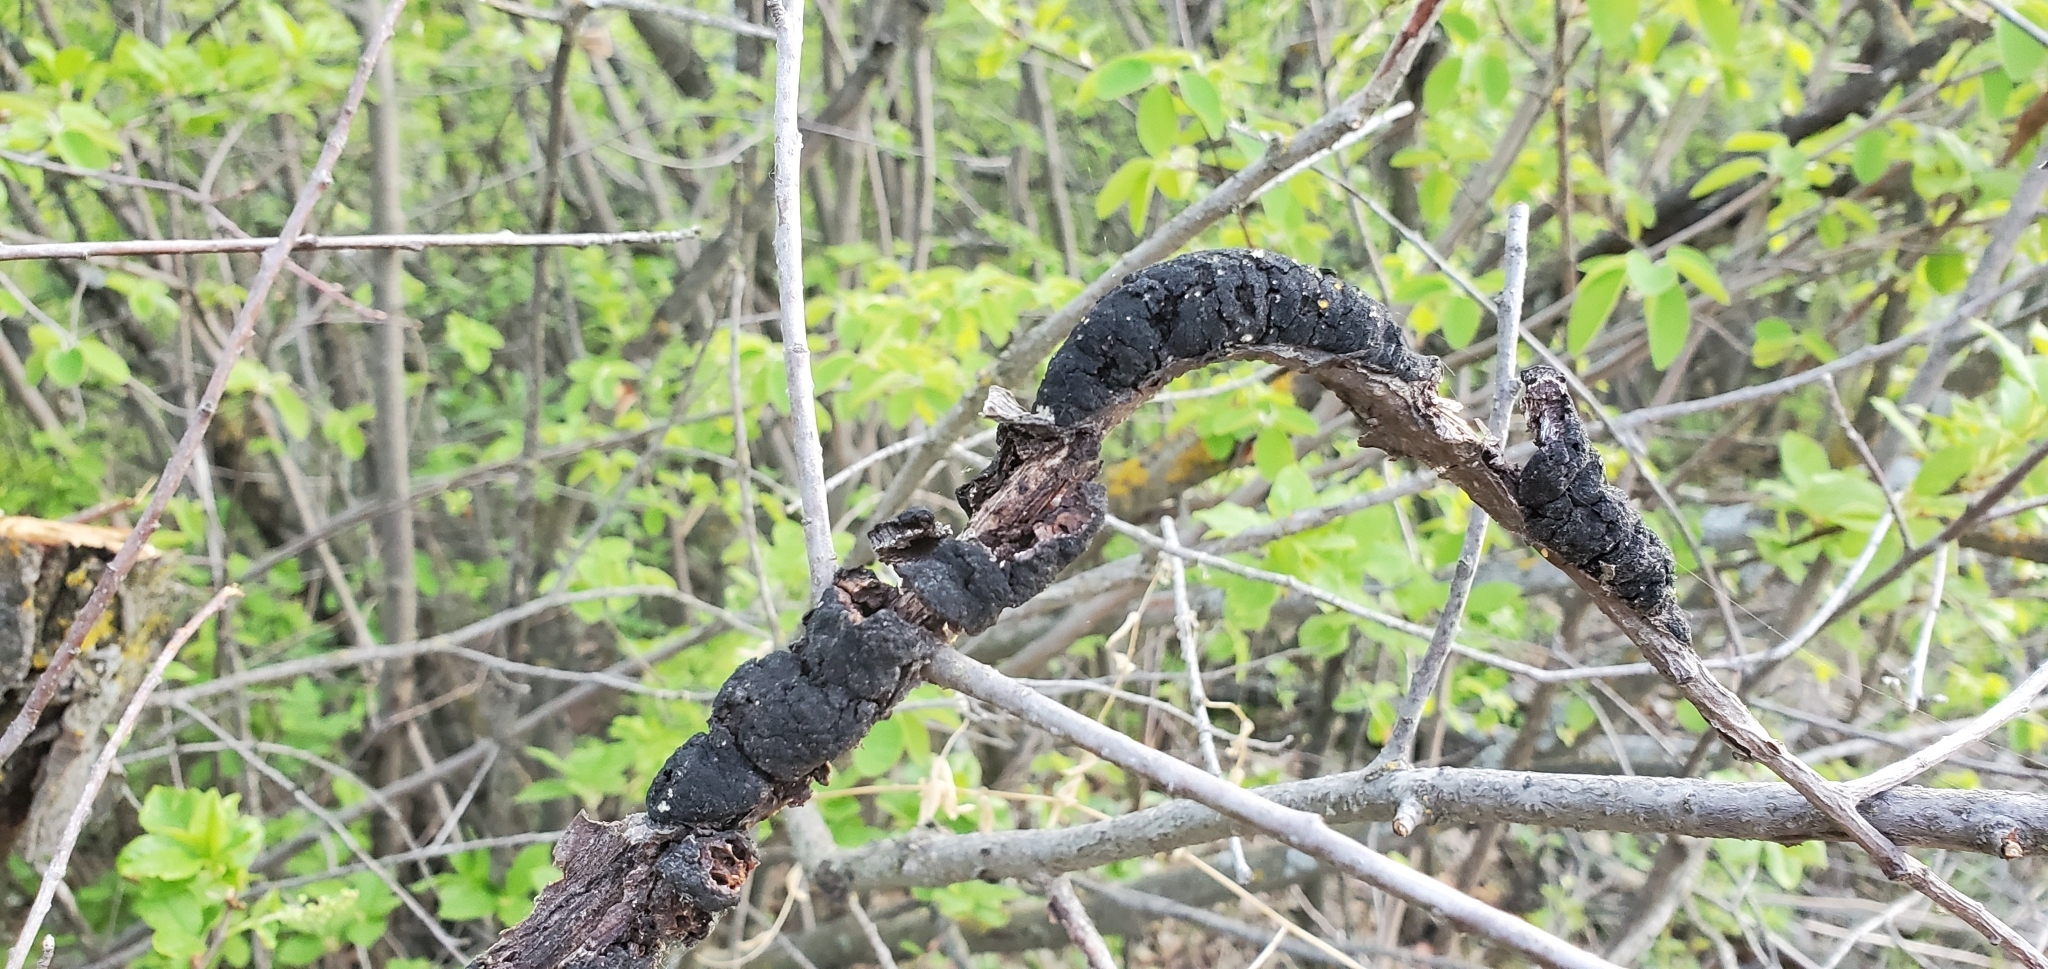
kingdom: Fungi
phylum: Ascomycota
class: Dothideomycetes
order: Venturiales
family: Venturiaceae
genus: Apiosporina
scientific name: Apiosporina morbosa
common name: Black knot
